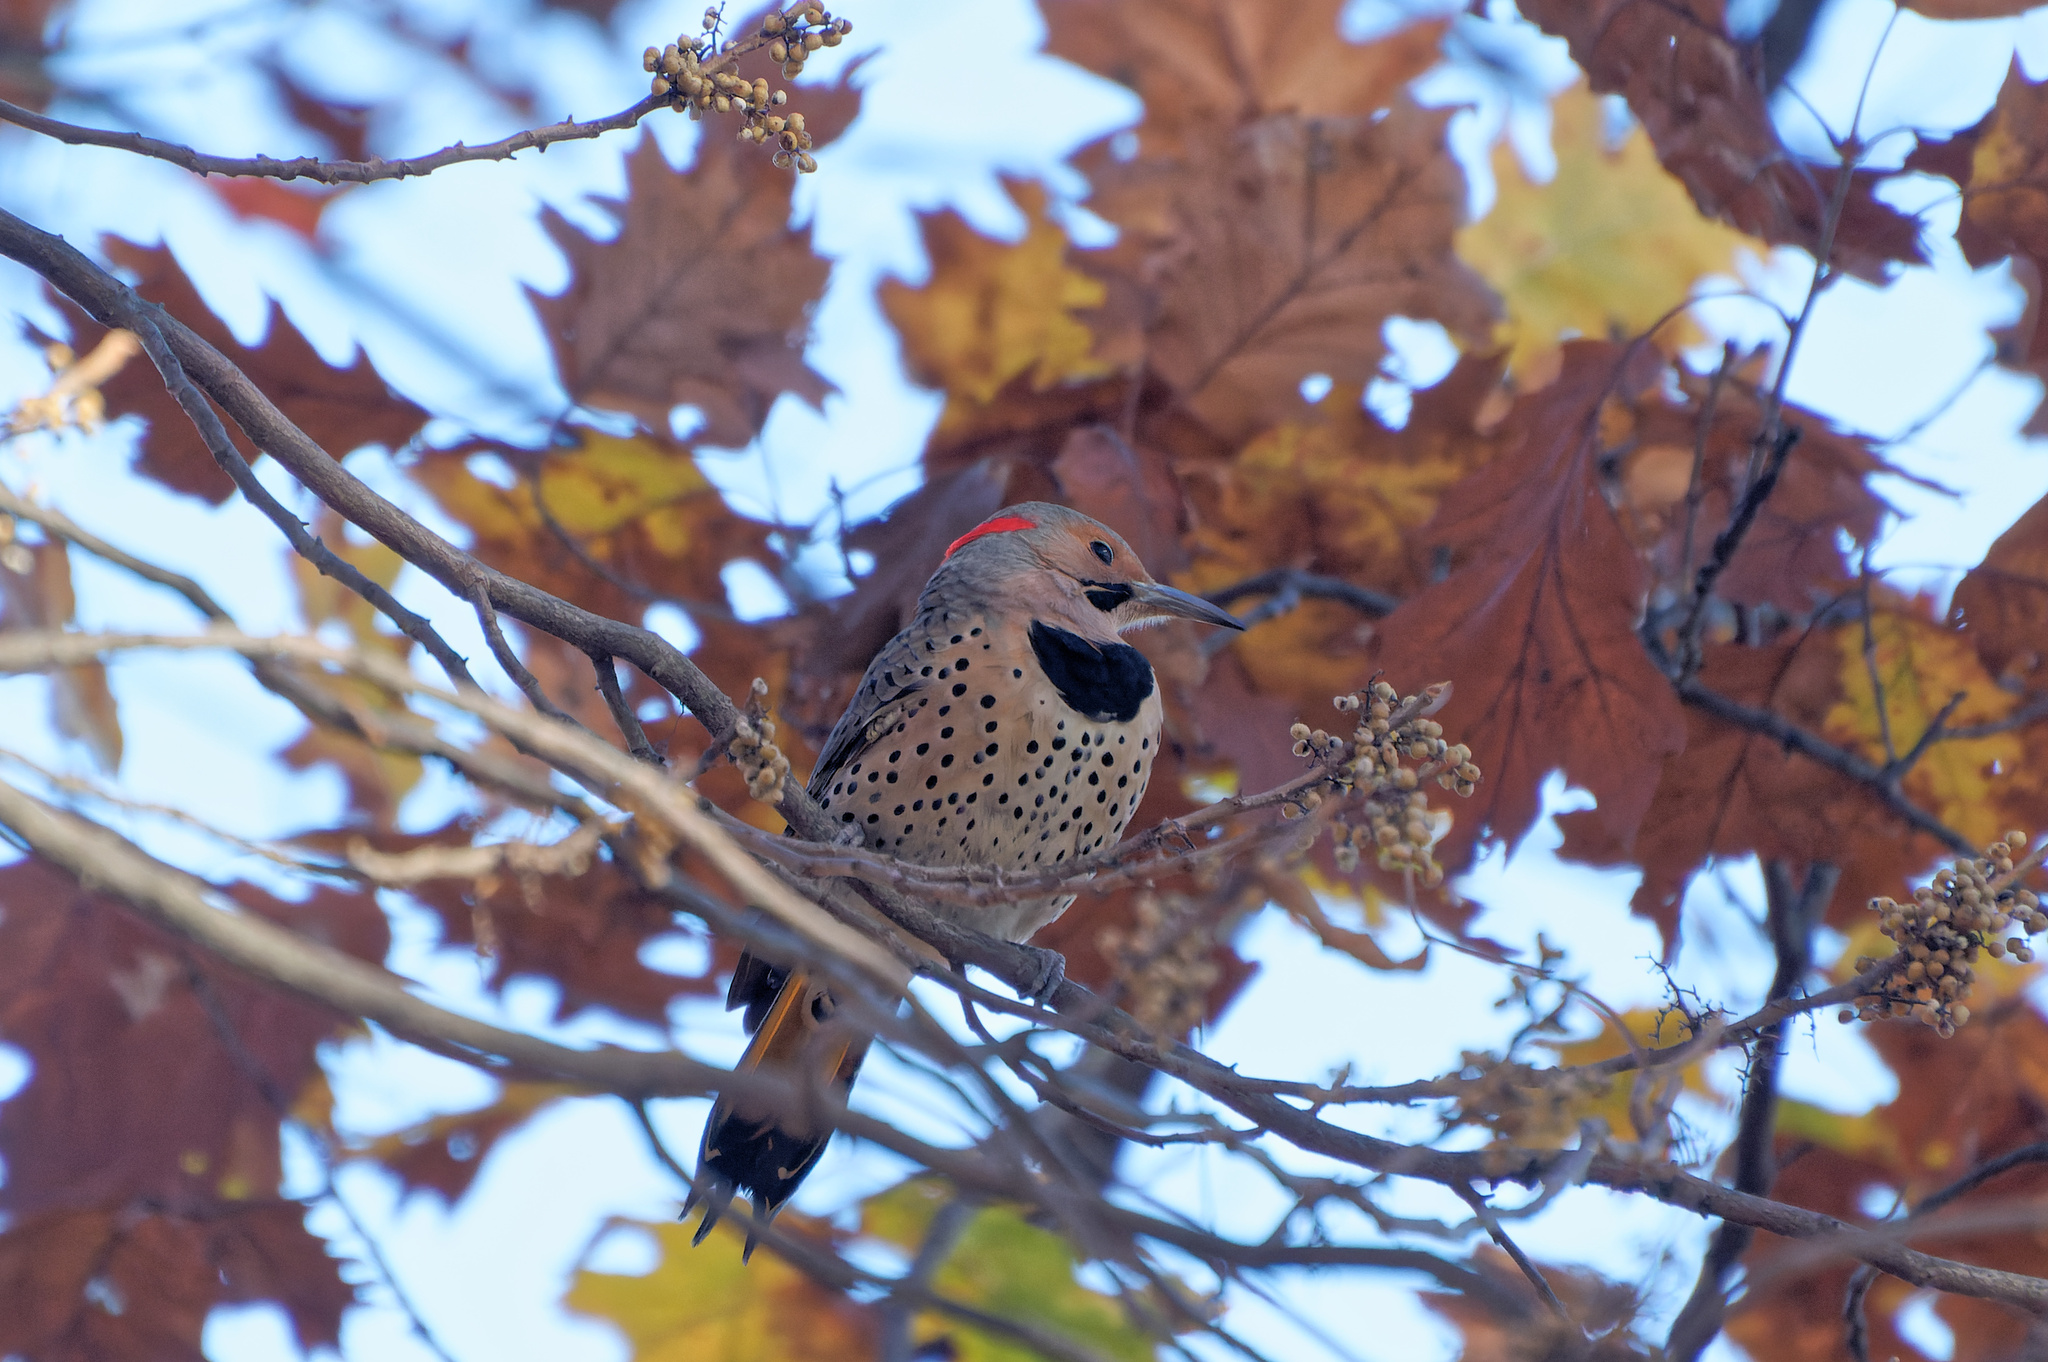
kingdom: Animalia
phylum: Chordata
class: Aves
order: Piciformes
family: Picidae
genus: Colaptes
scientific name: Colaptes auratus
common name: Northern flicker
